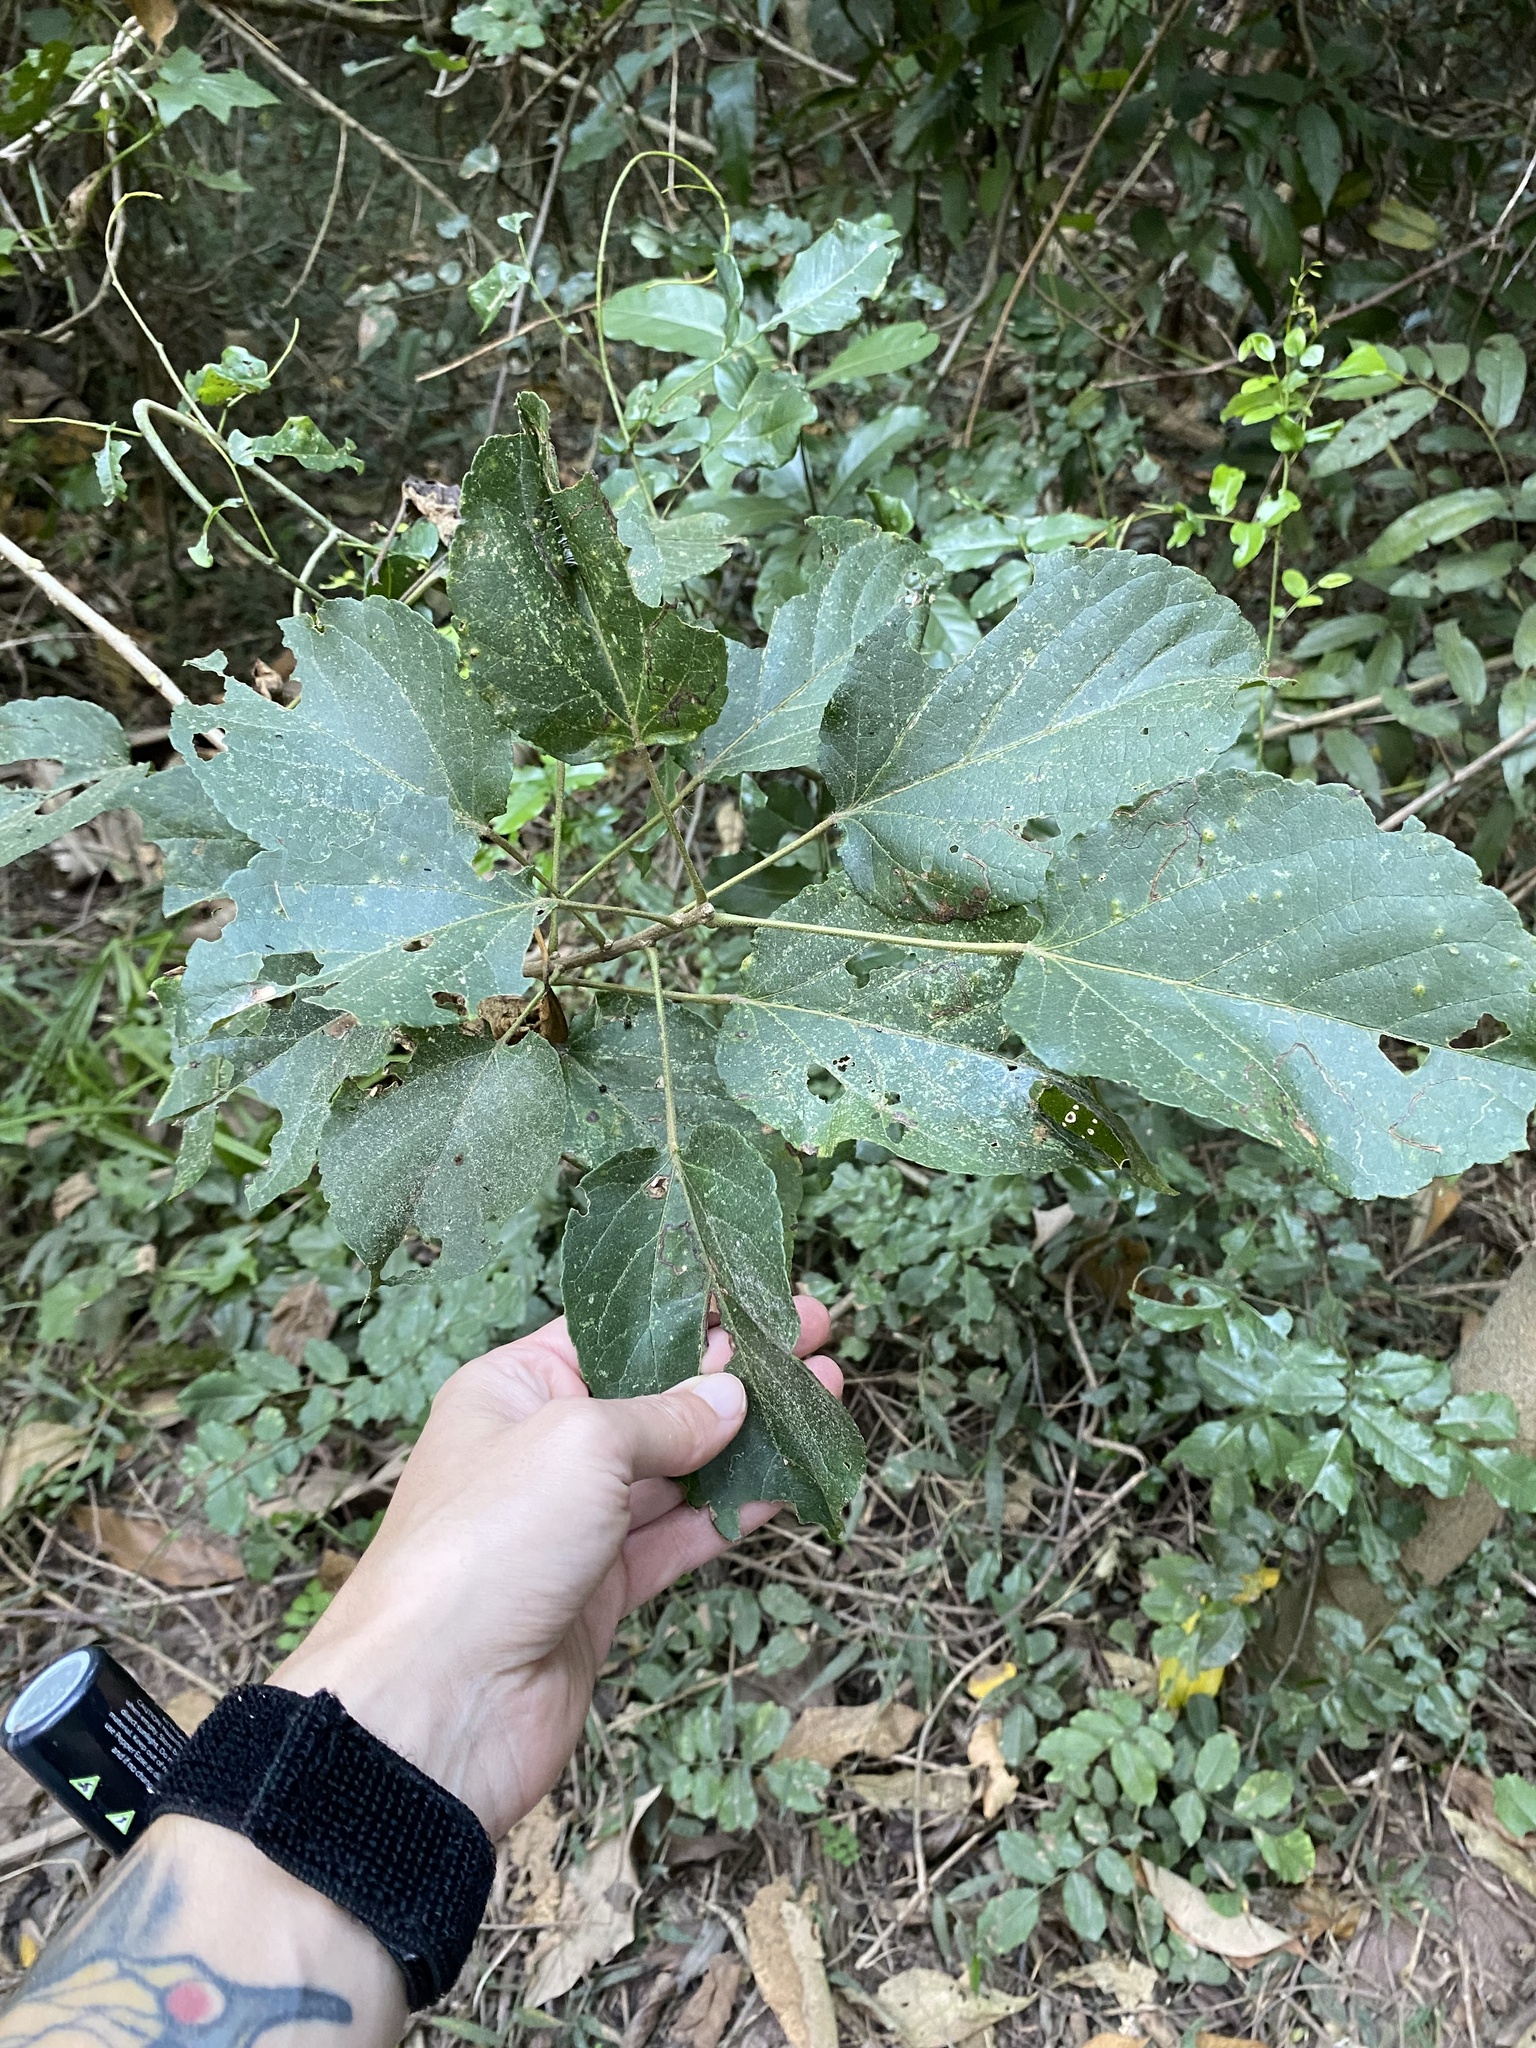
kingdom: Plantae
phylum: Tracheophyta
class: Magnoliopsida
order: Malpighiales
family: Euphorbiaceae
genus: Croton
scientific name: Croton sylvaticus
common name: Forest croton
